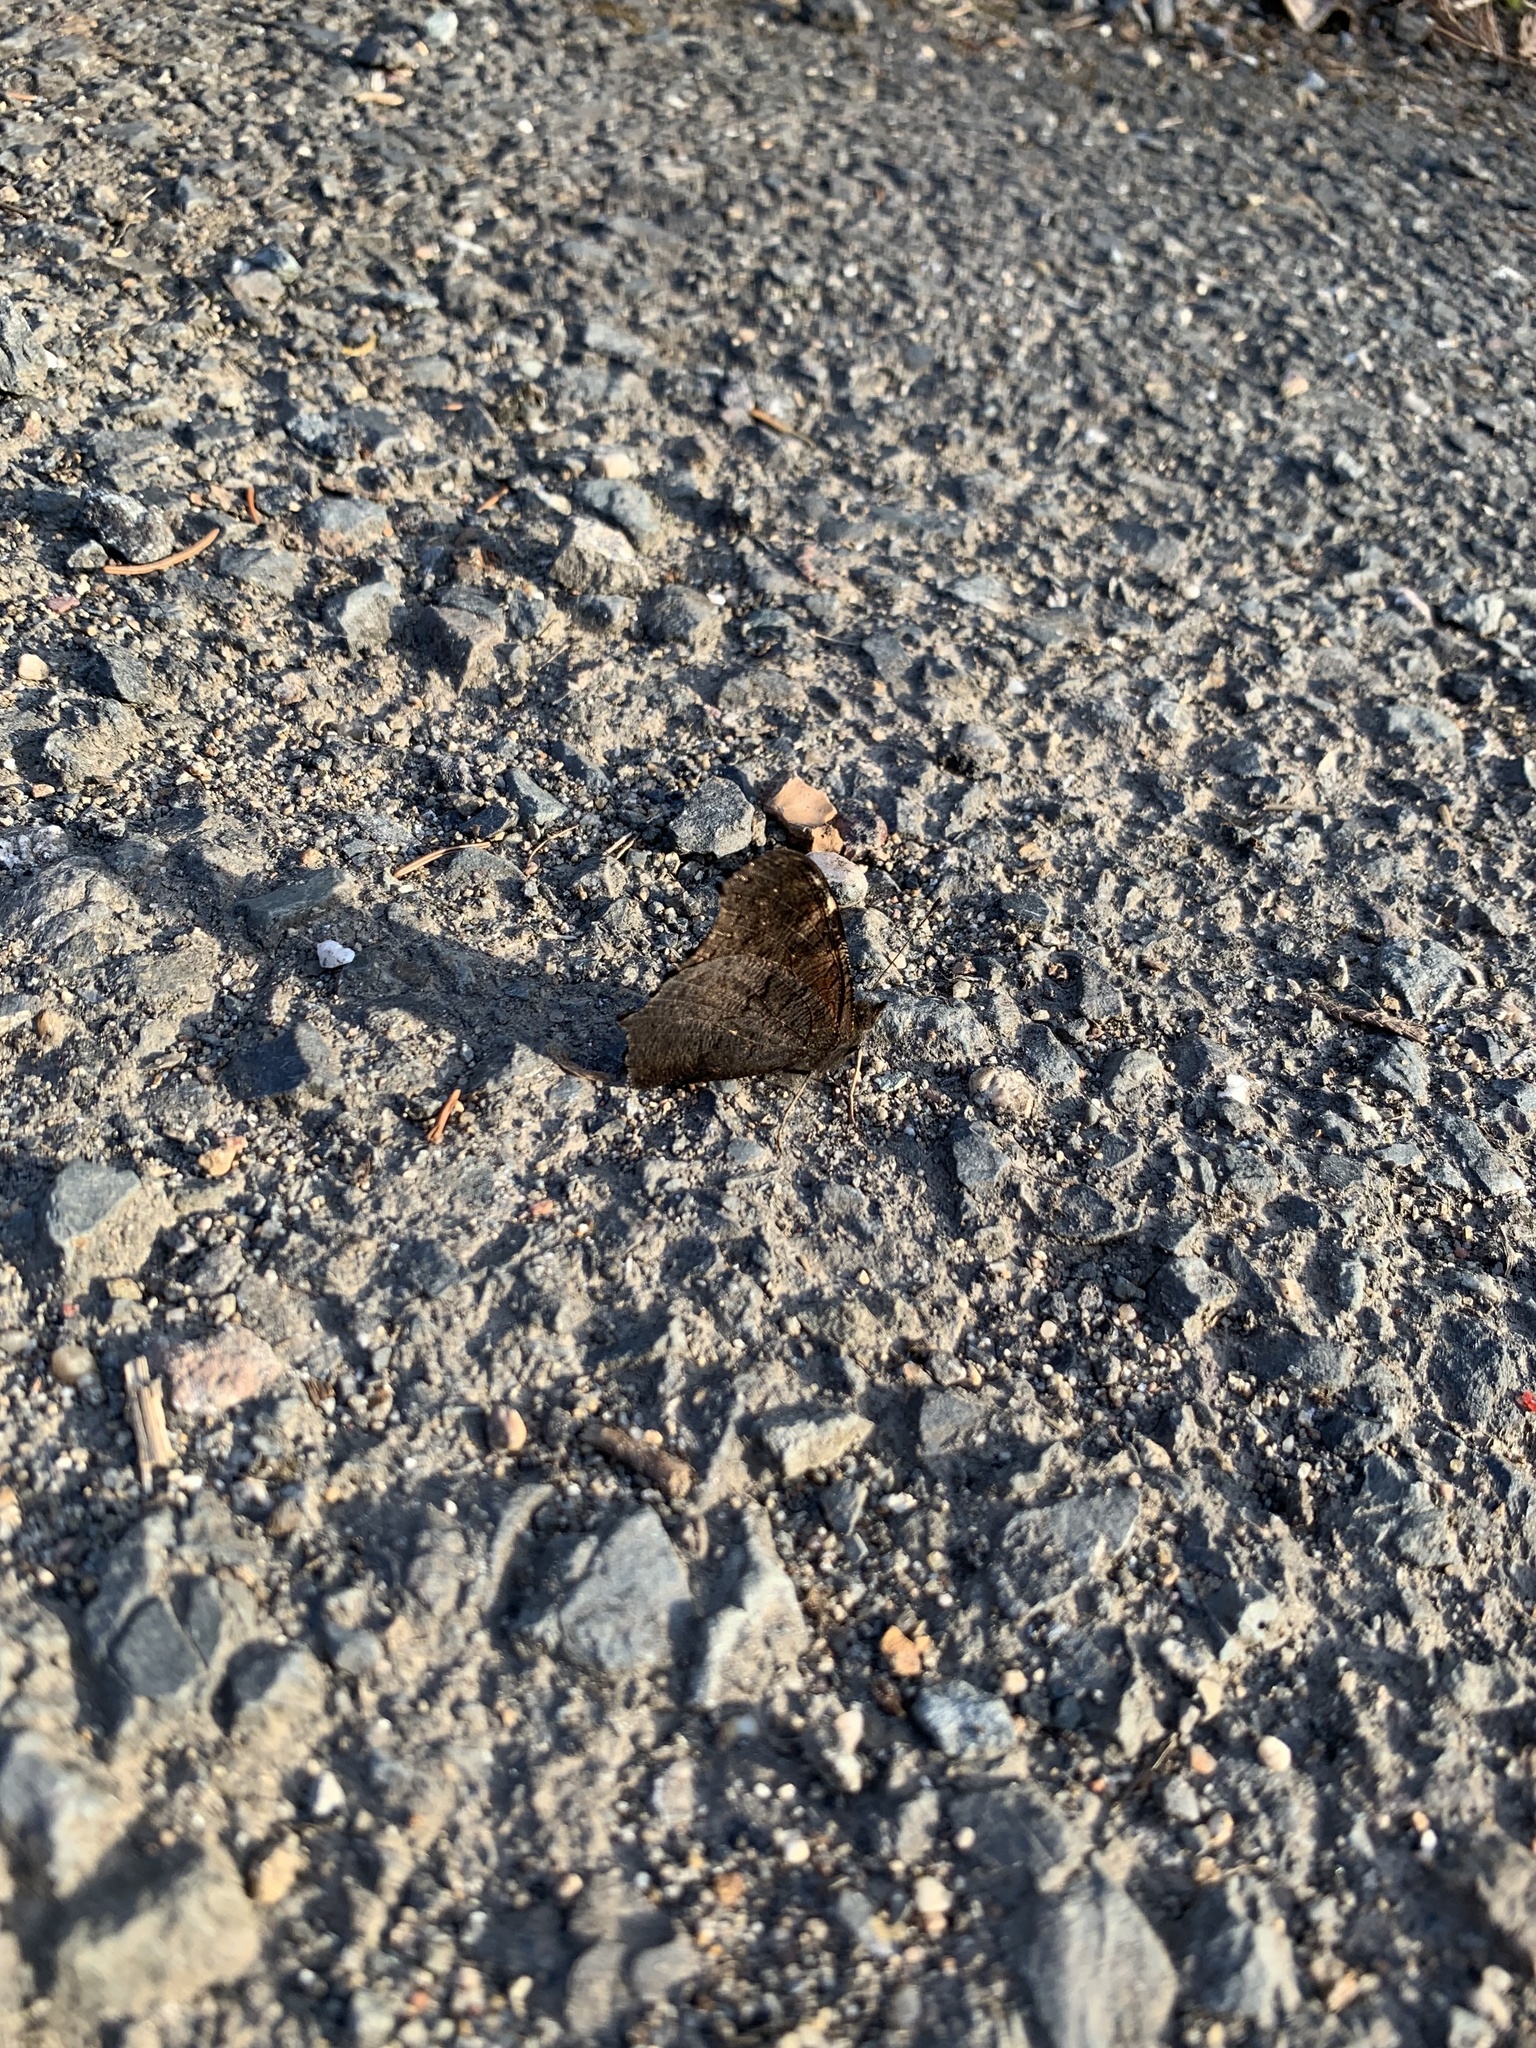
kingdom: Animalia
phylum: Arthropoda
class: Insecta
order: Lepidoptera
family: Nymphalidae
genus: Aglais
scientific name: Aglais io
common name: Peacock
